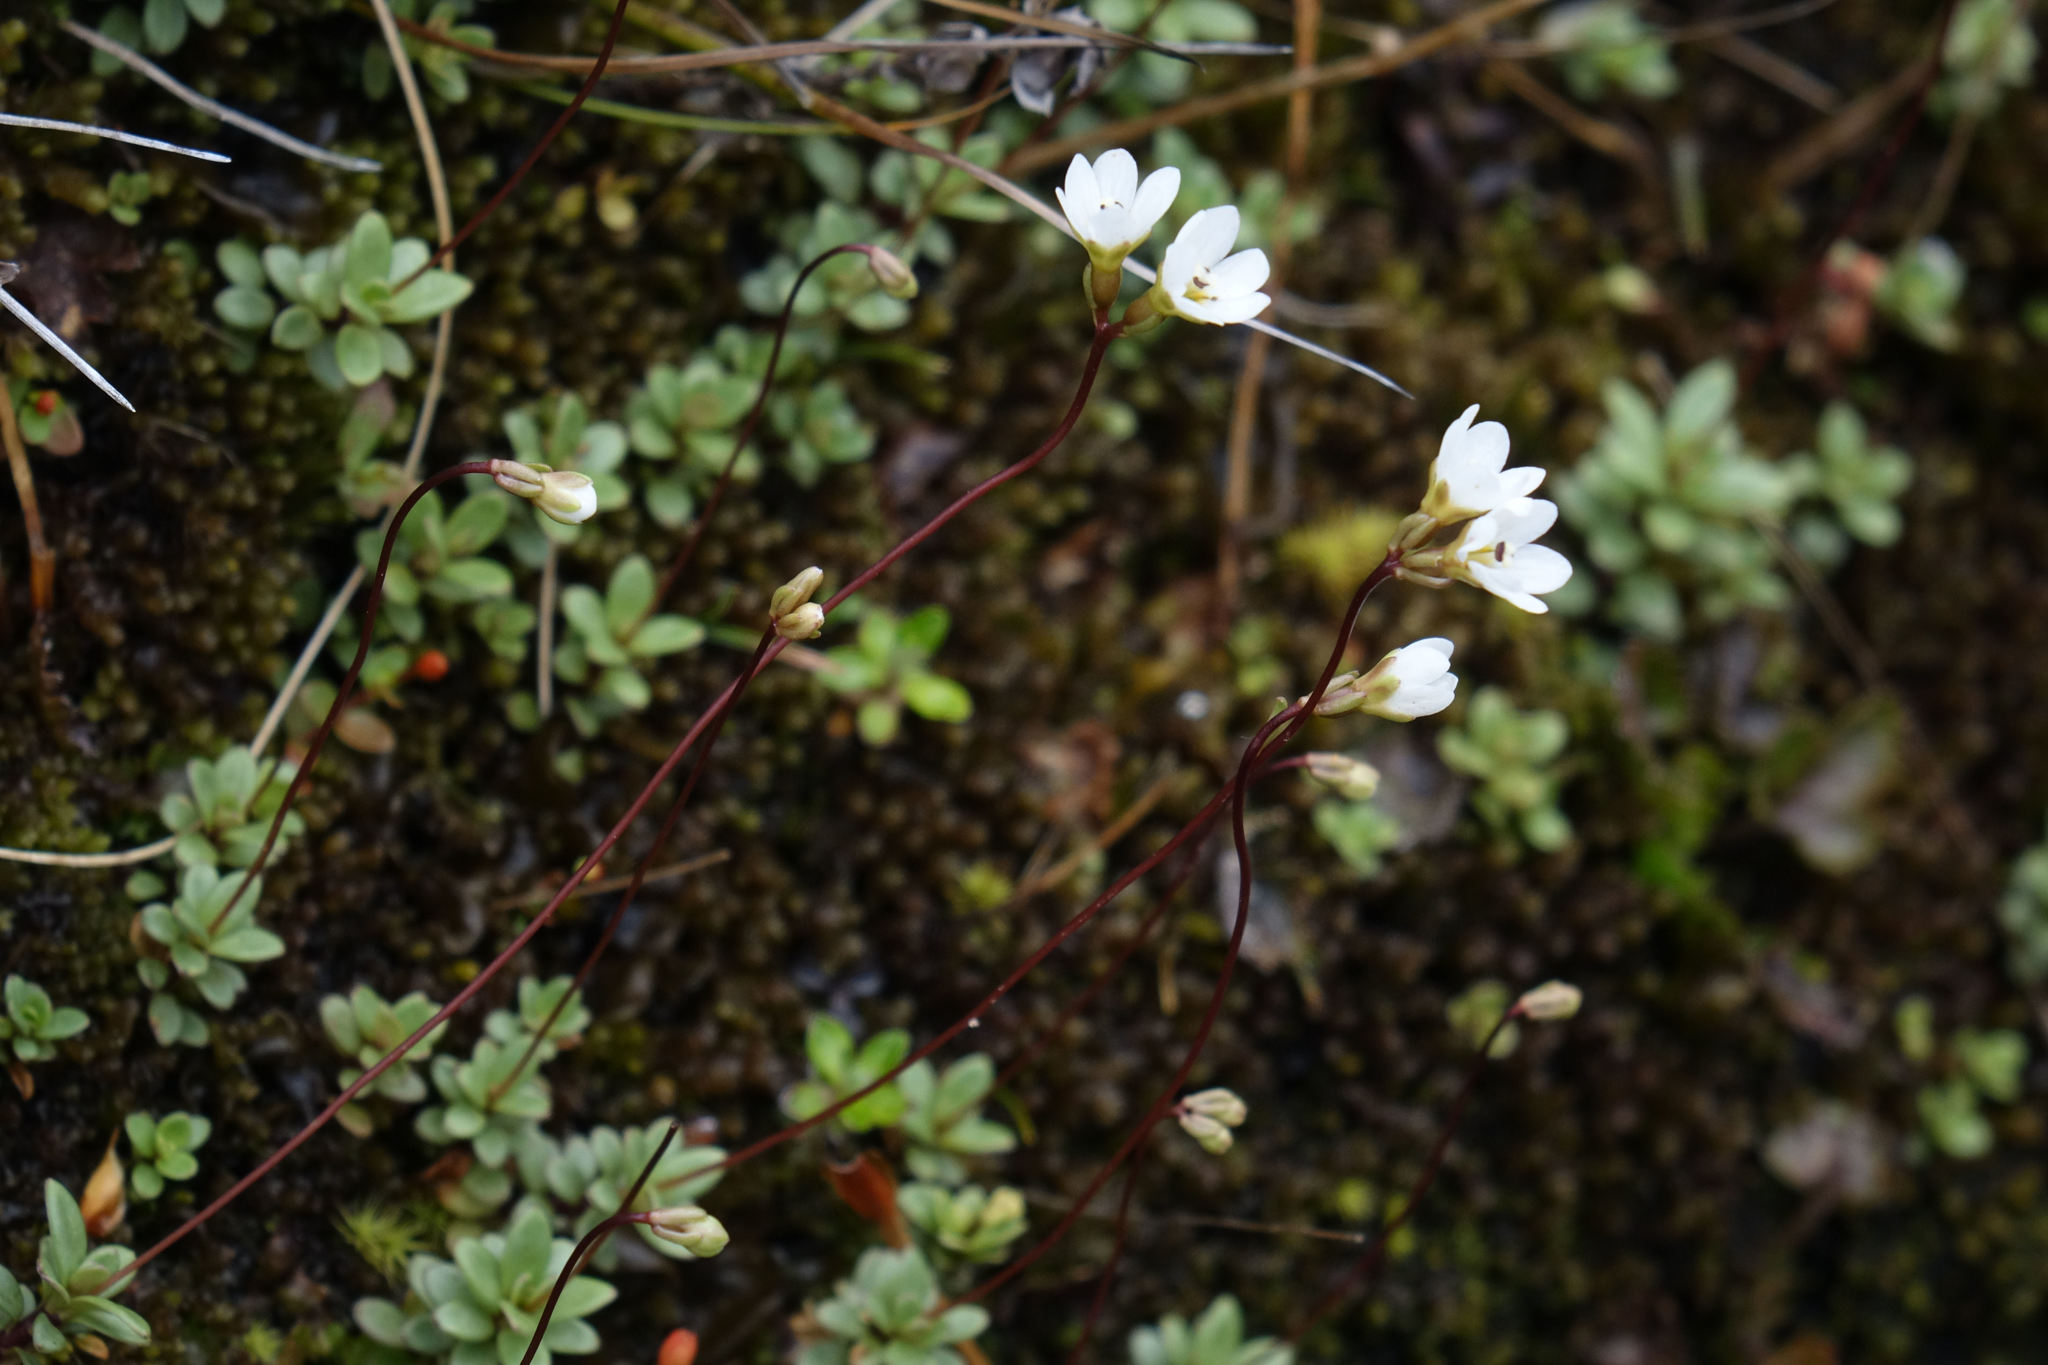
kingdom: Plantae
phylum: Tracheophyta
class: Magnoliopsida
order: Asterales
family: Stylidiaceae
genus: Forstera
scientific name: Forstera tenella
